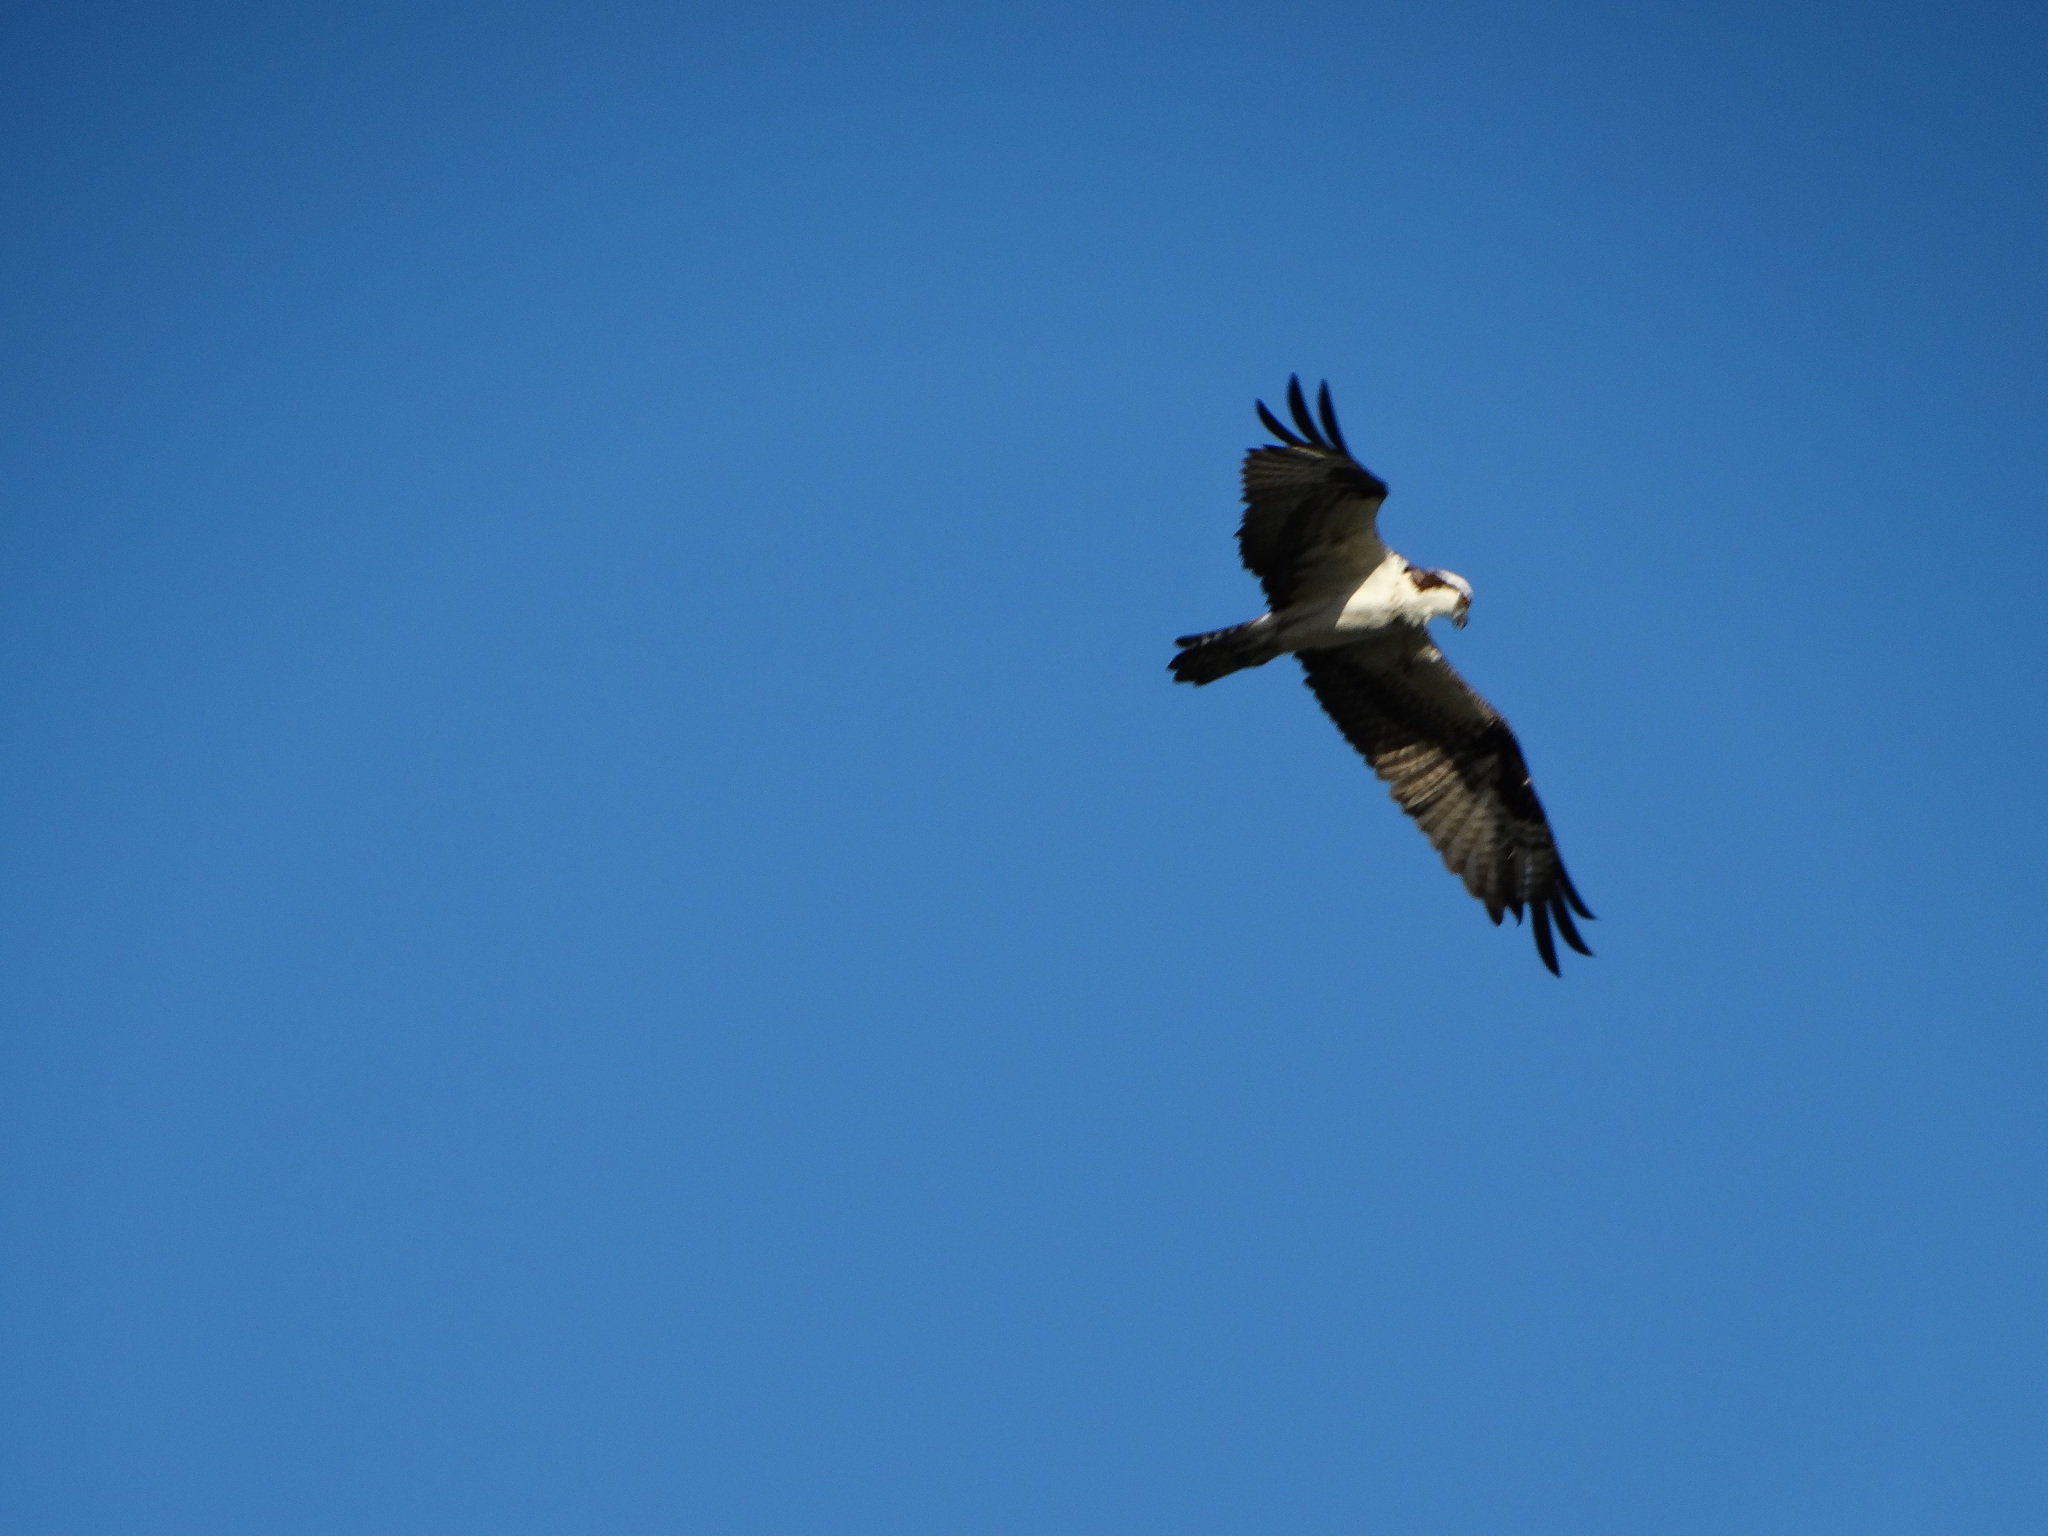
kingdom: Animalia
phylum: Chordata
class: Aves
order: Accipitriformes
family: Pandionidae
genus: Pandion
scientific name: Pandion haliaetus
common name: Osprey
